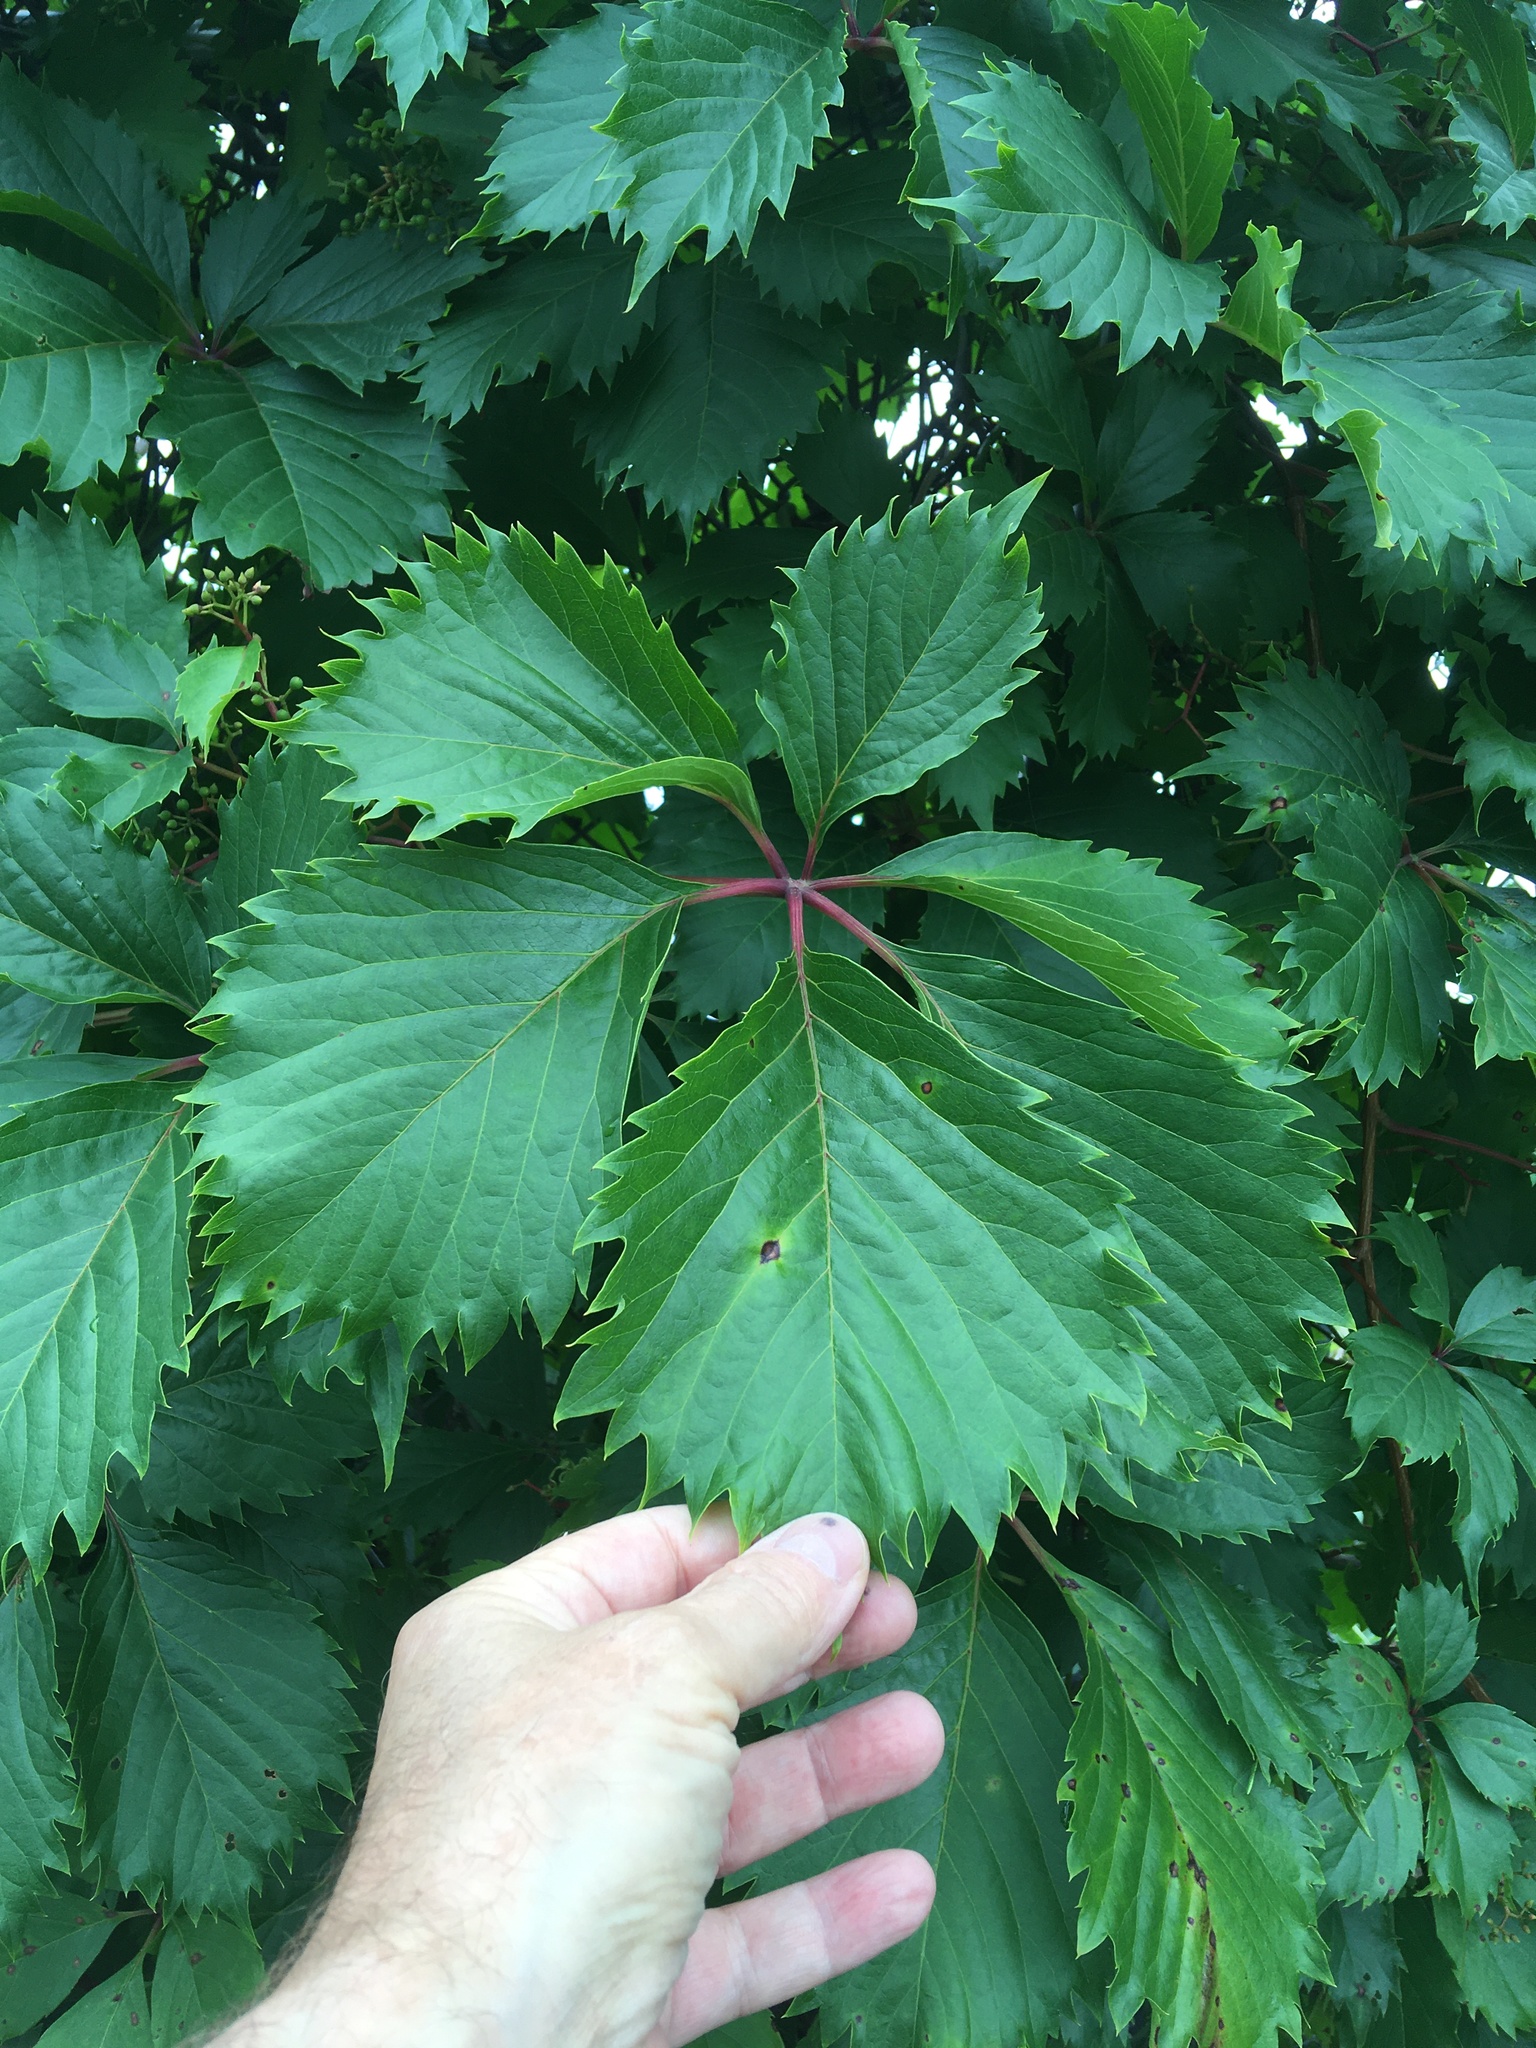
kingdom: Plantae
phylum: Tracheophyta
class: Magnoliopsida
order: Vitales
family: Vitaceae
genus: Parthenocissus
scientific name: Parthenocissus inserta
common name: False virginia-creeper
